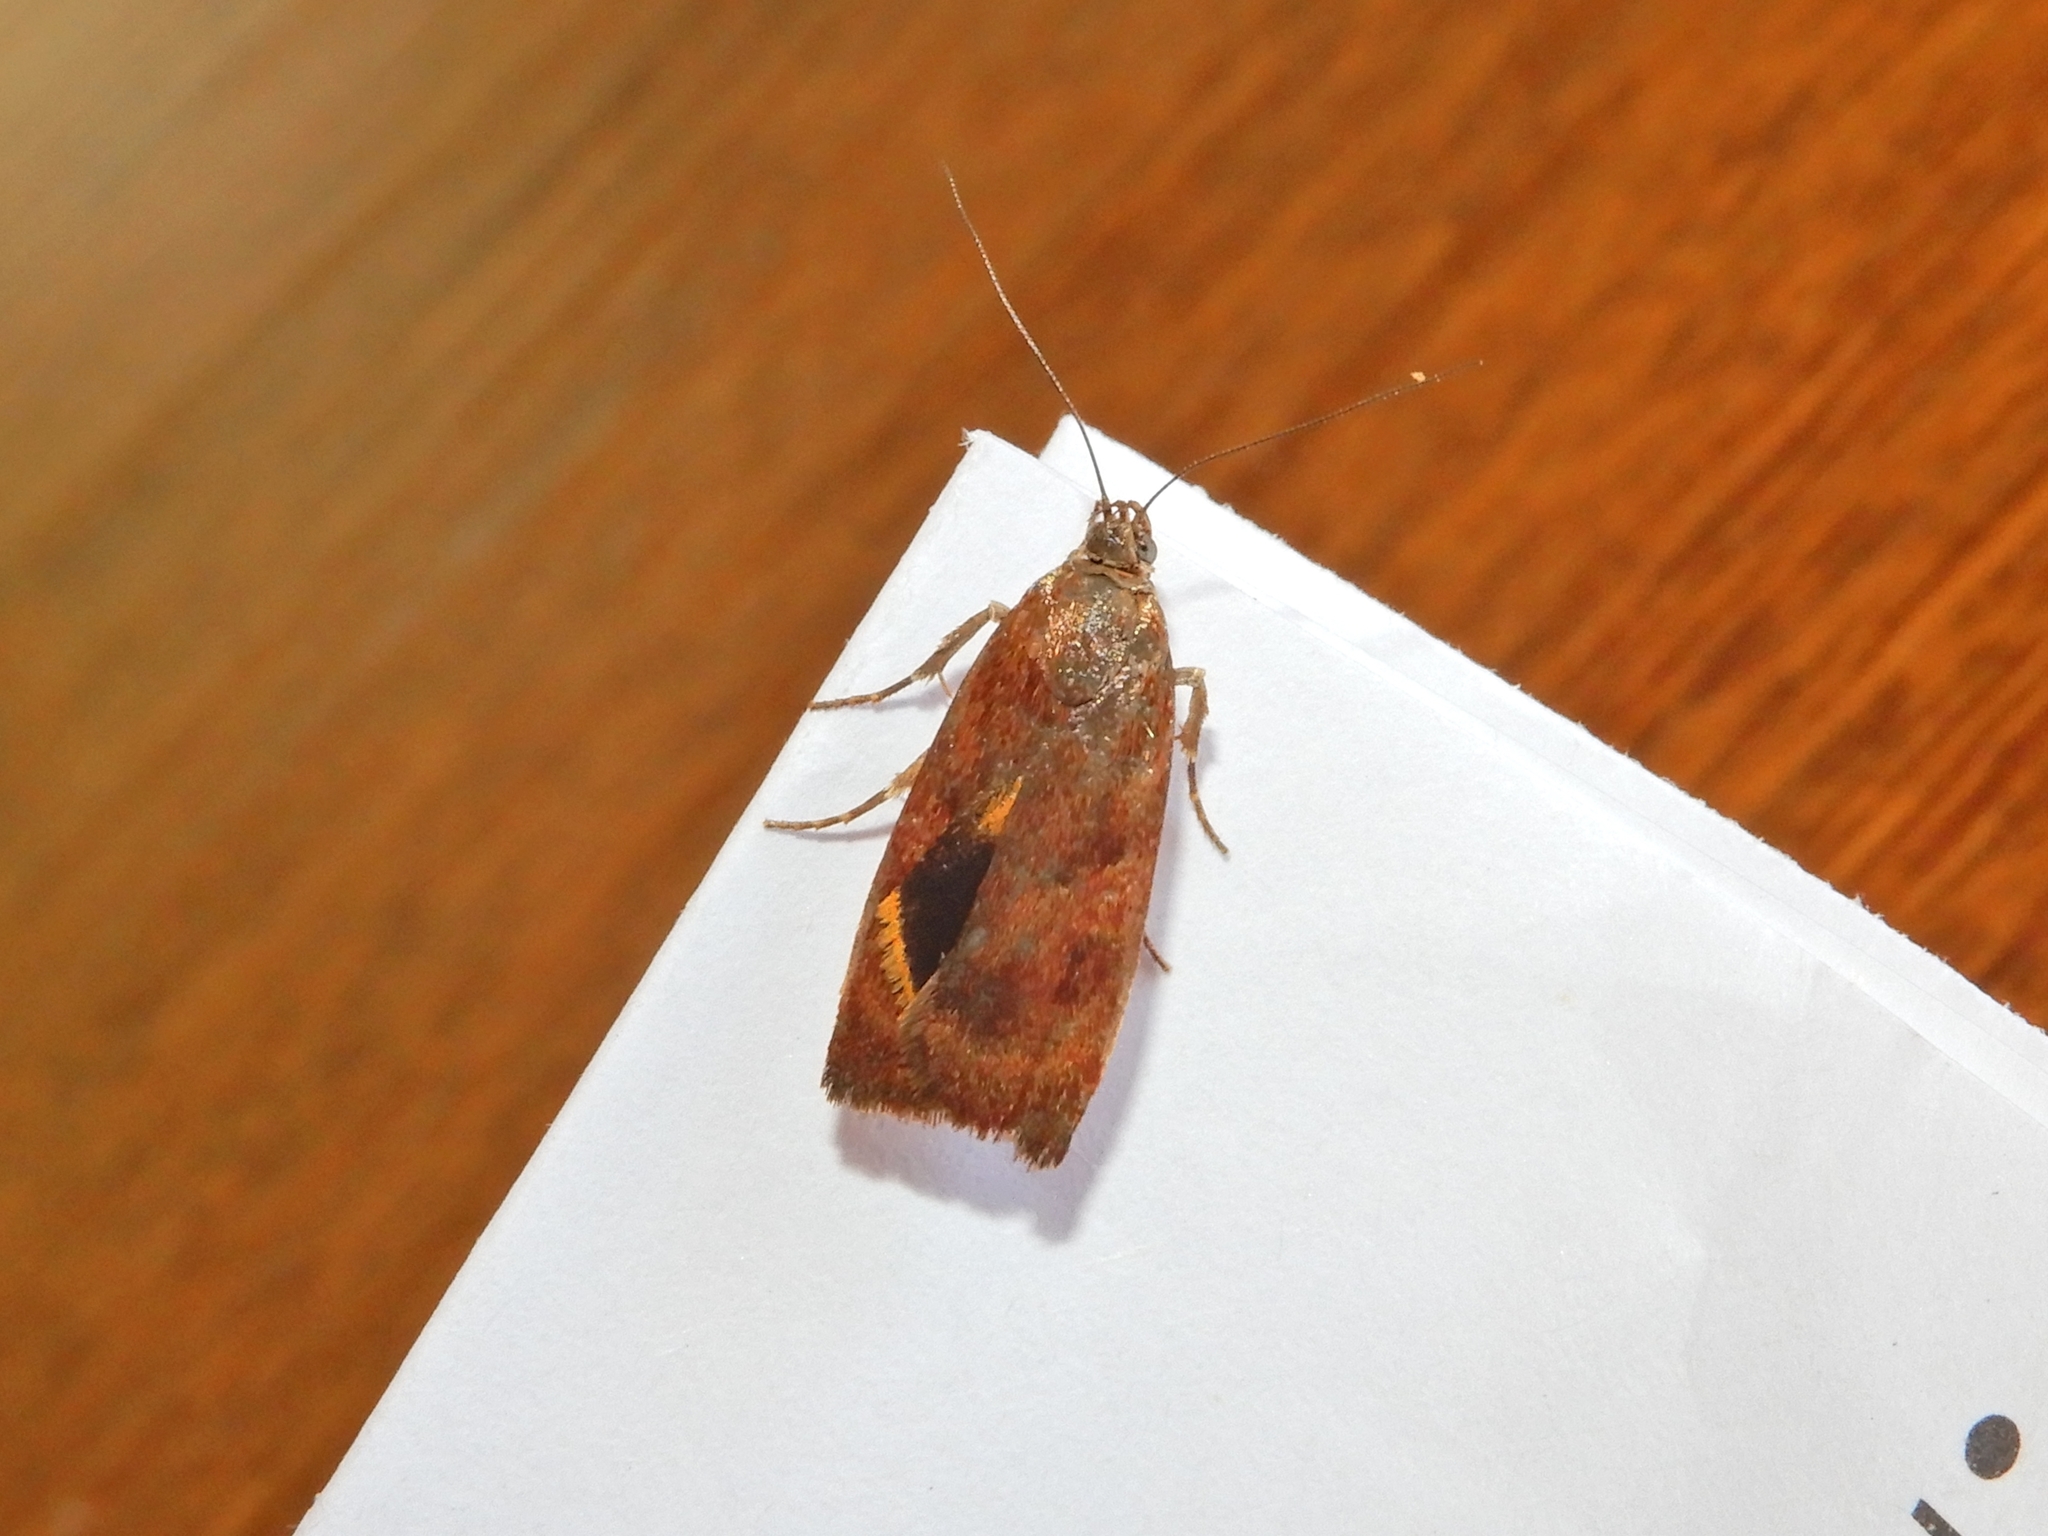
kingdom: Animalia
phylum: Arthropoda
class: Insecta
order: Lepidoptera
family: Oecophoridae
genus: Hierodoris
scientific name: Hierodoris
